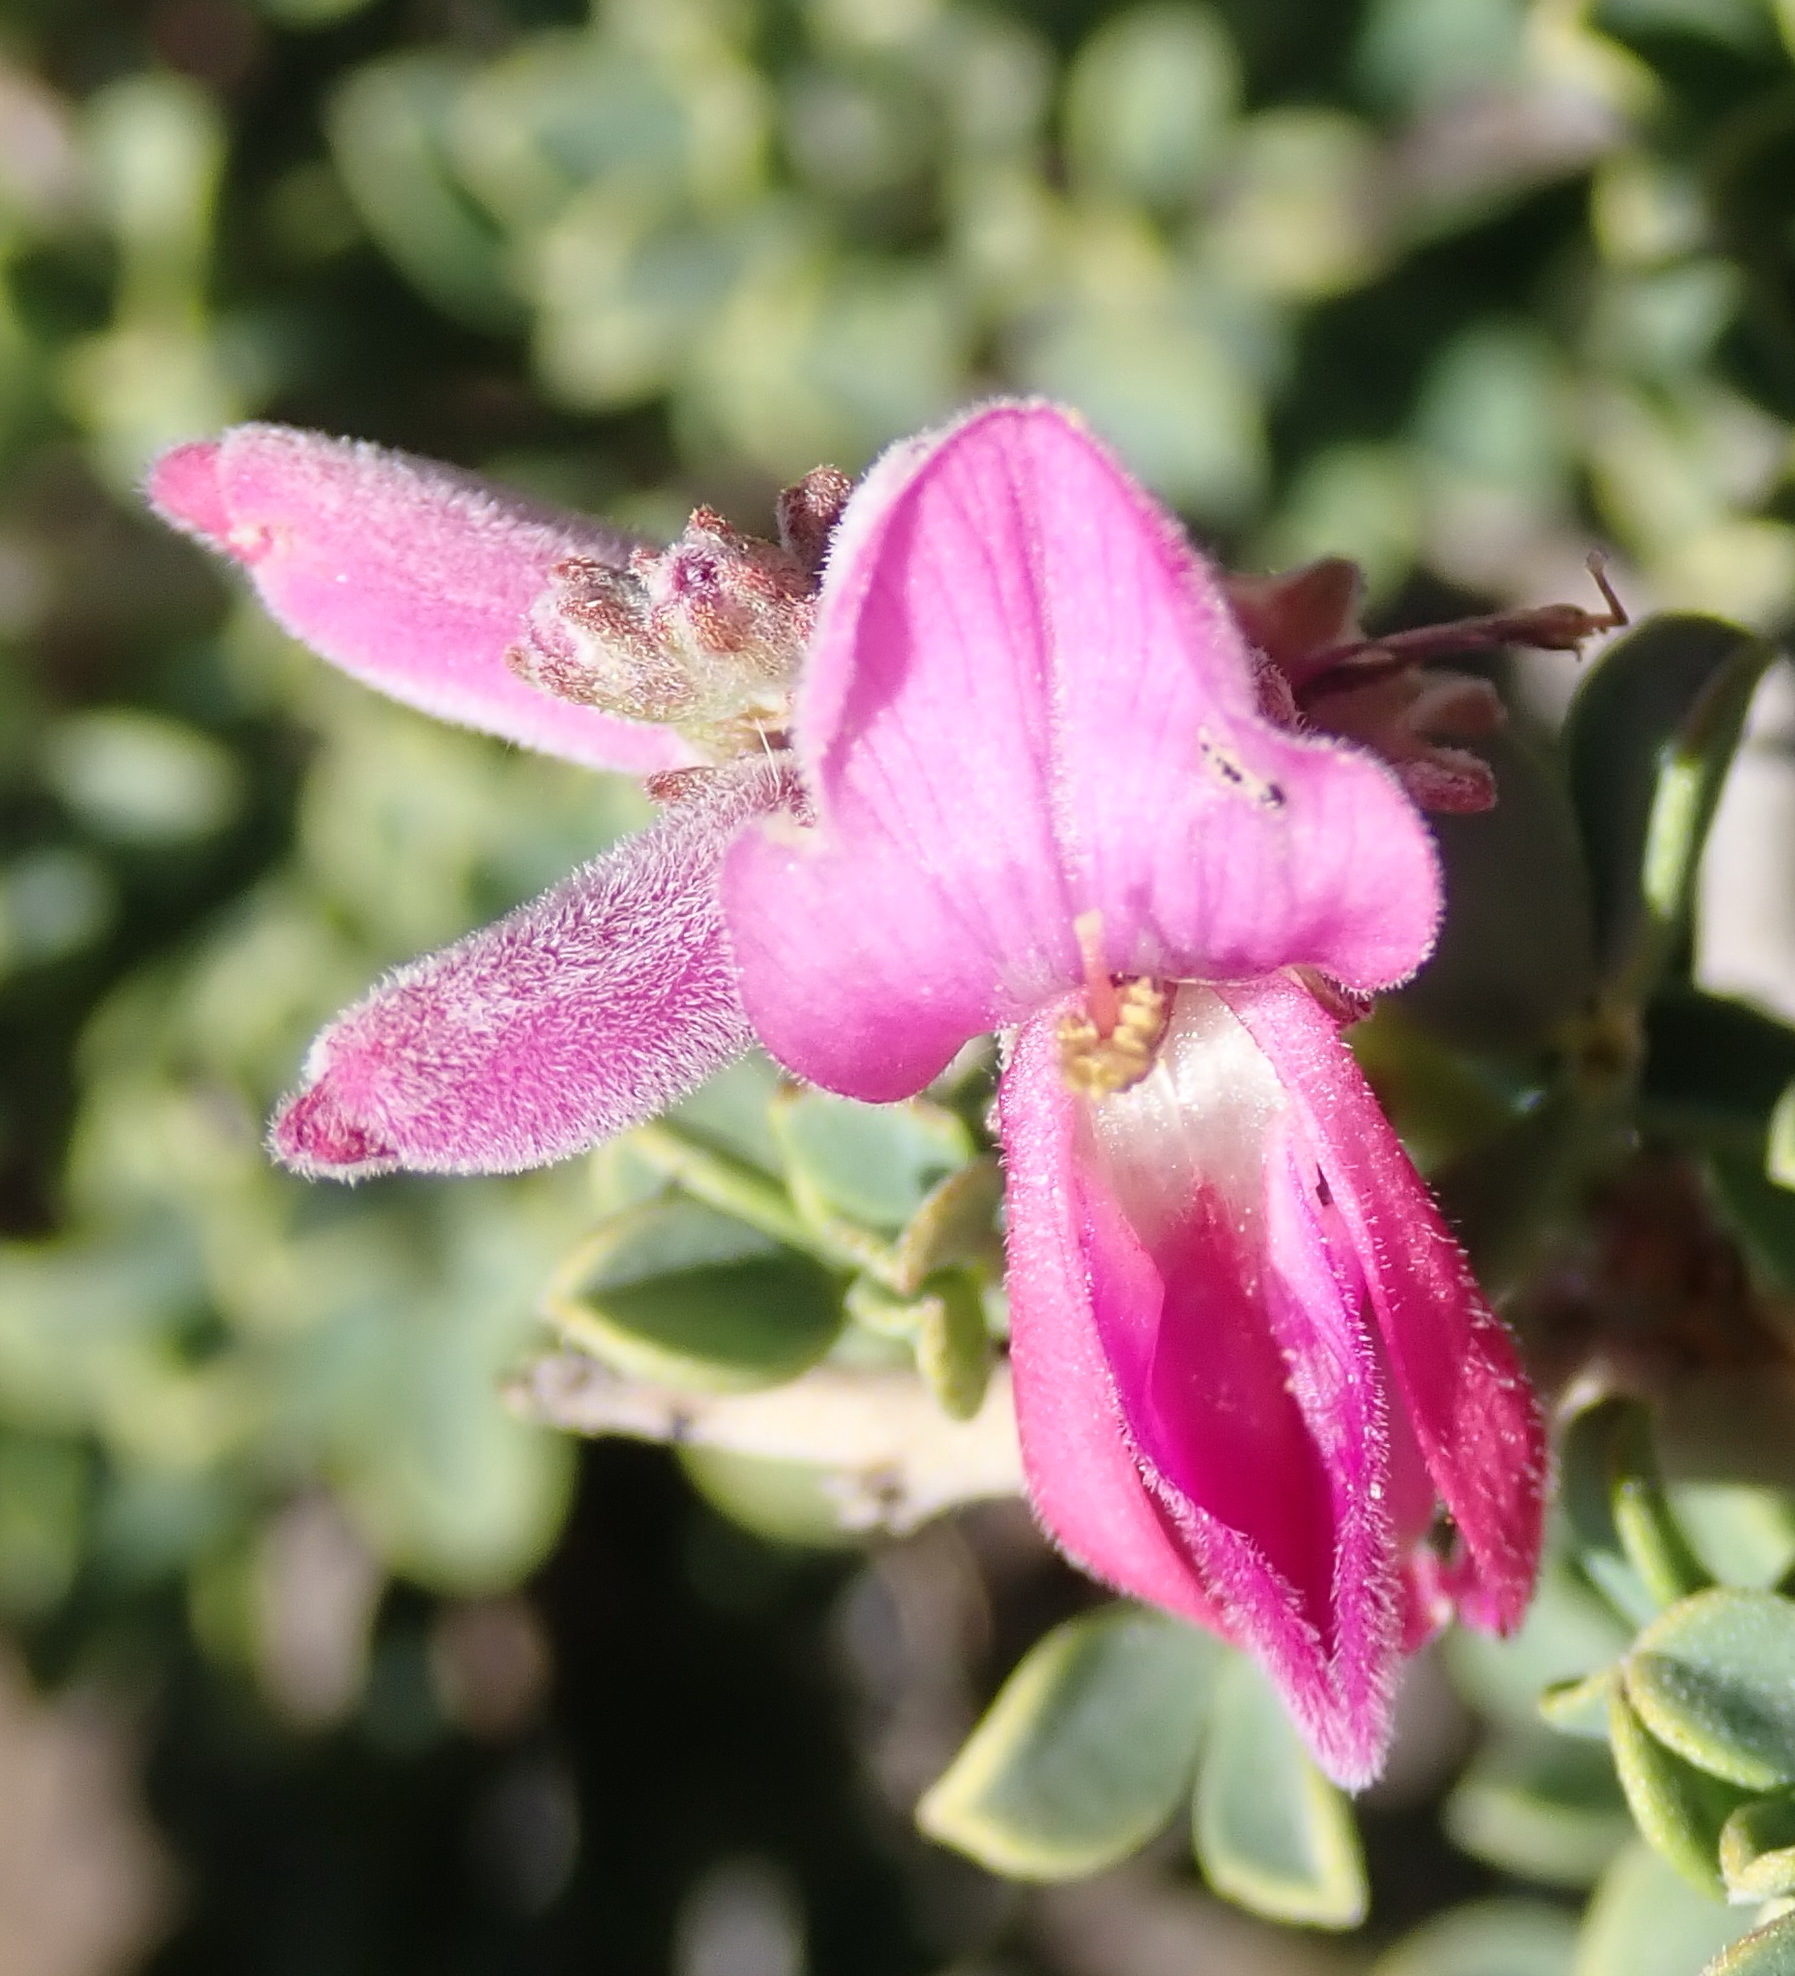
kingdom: Plantae
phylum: Tracheophyta
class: Magnoliopsida
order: Fabales
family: Fabaceae
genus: Indigofera
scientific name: Indigofera nigromontana
